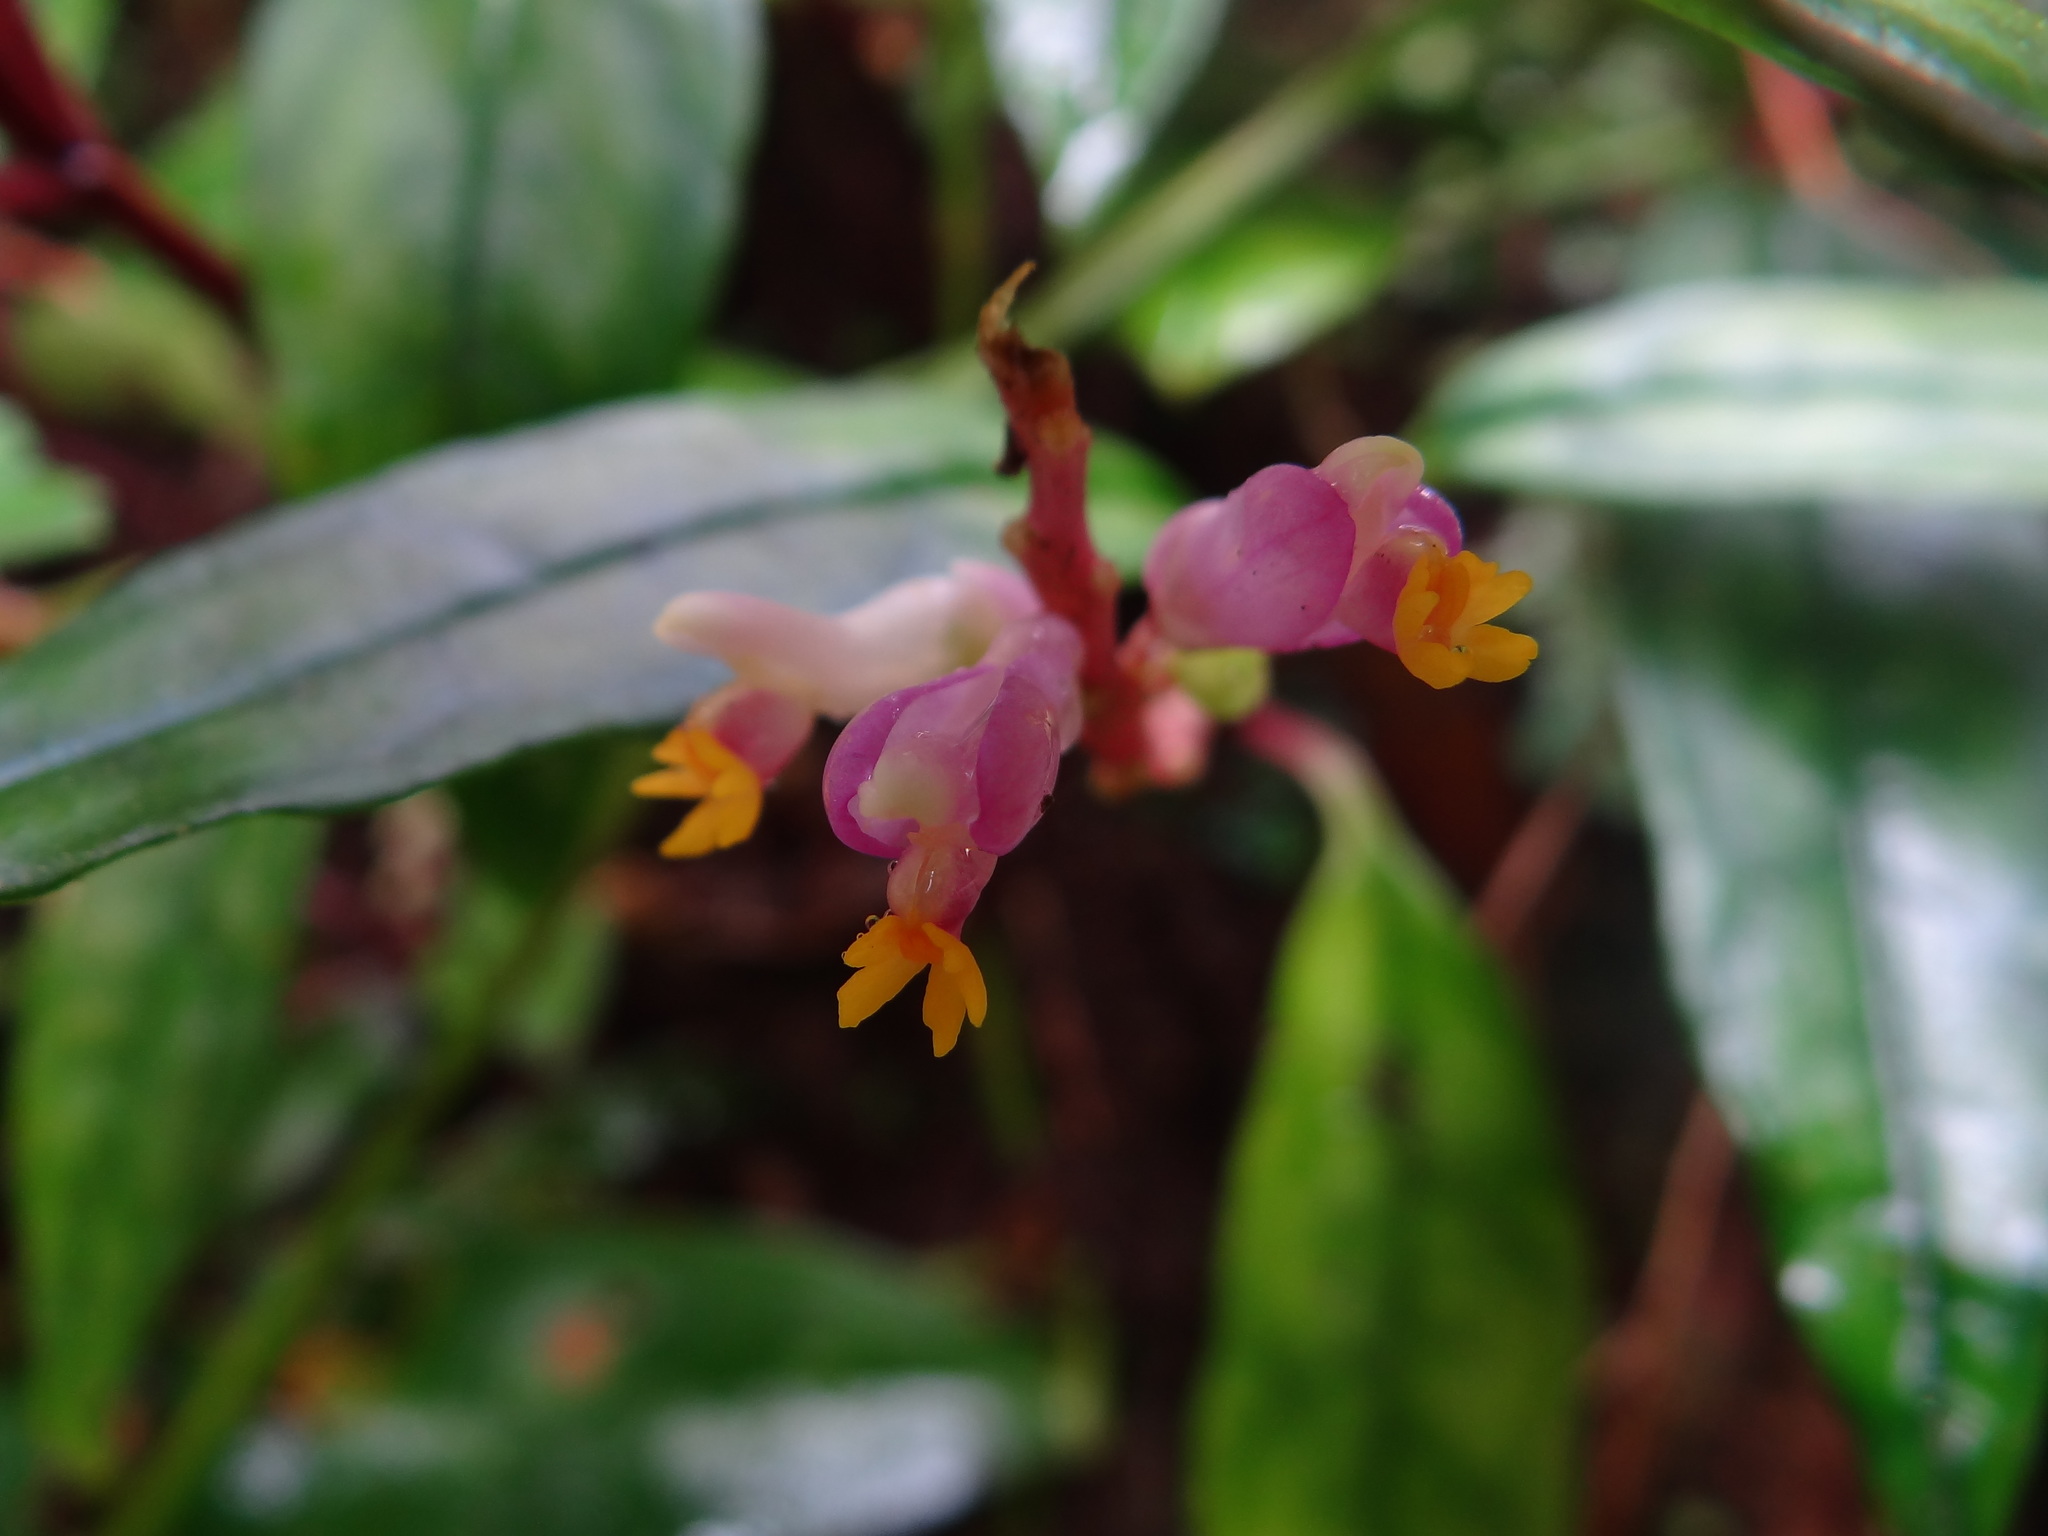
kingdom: Plantae
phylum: Tracheophyta
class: Magnoliopsida
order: Fabales
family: Polygalaceae
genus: Polygala
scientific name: Polygala arcuata
